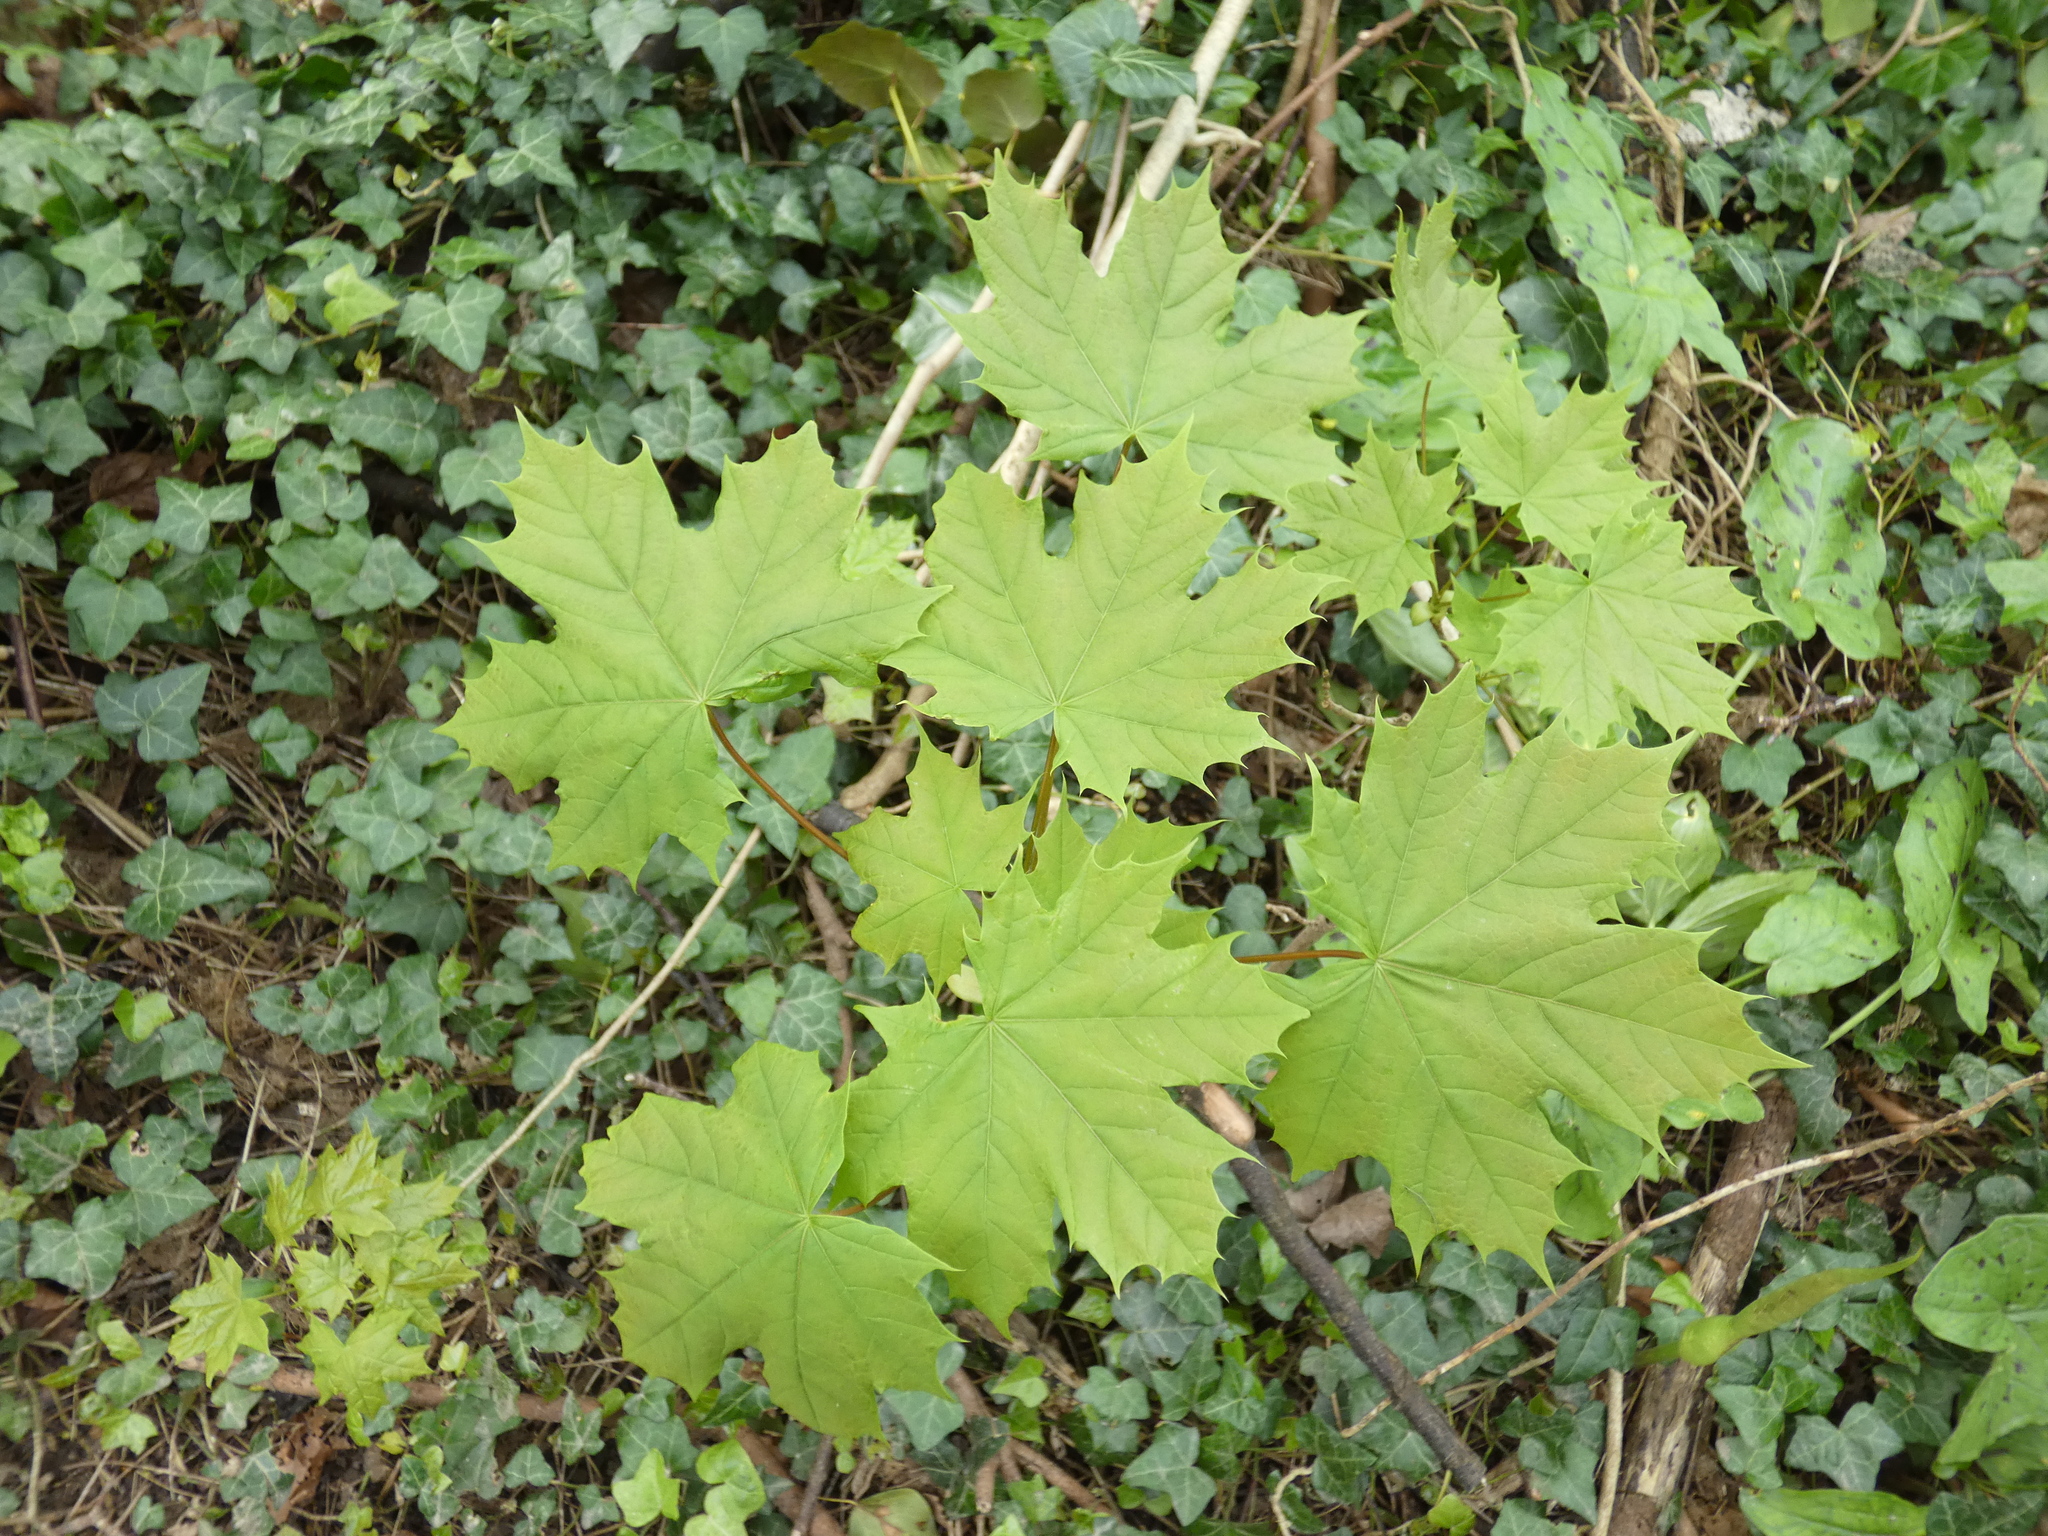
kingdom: Plantae
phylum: Tracheophyta
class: Magnoliopsida
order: Sapindales
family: Sapindaceae
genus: Acer
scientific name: Acer platanoides
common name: Norway maple
